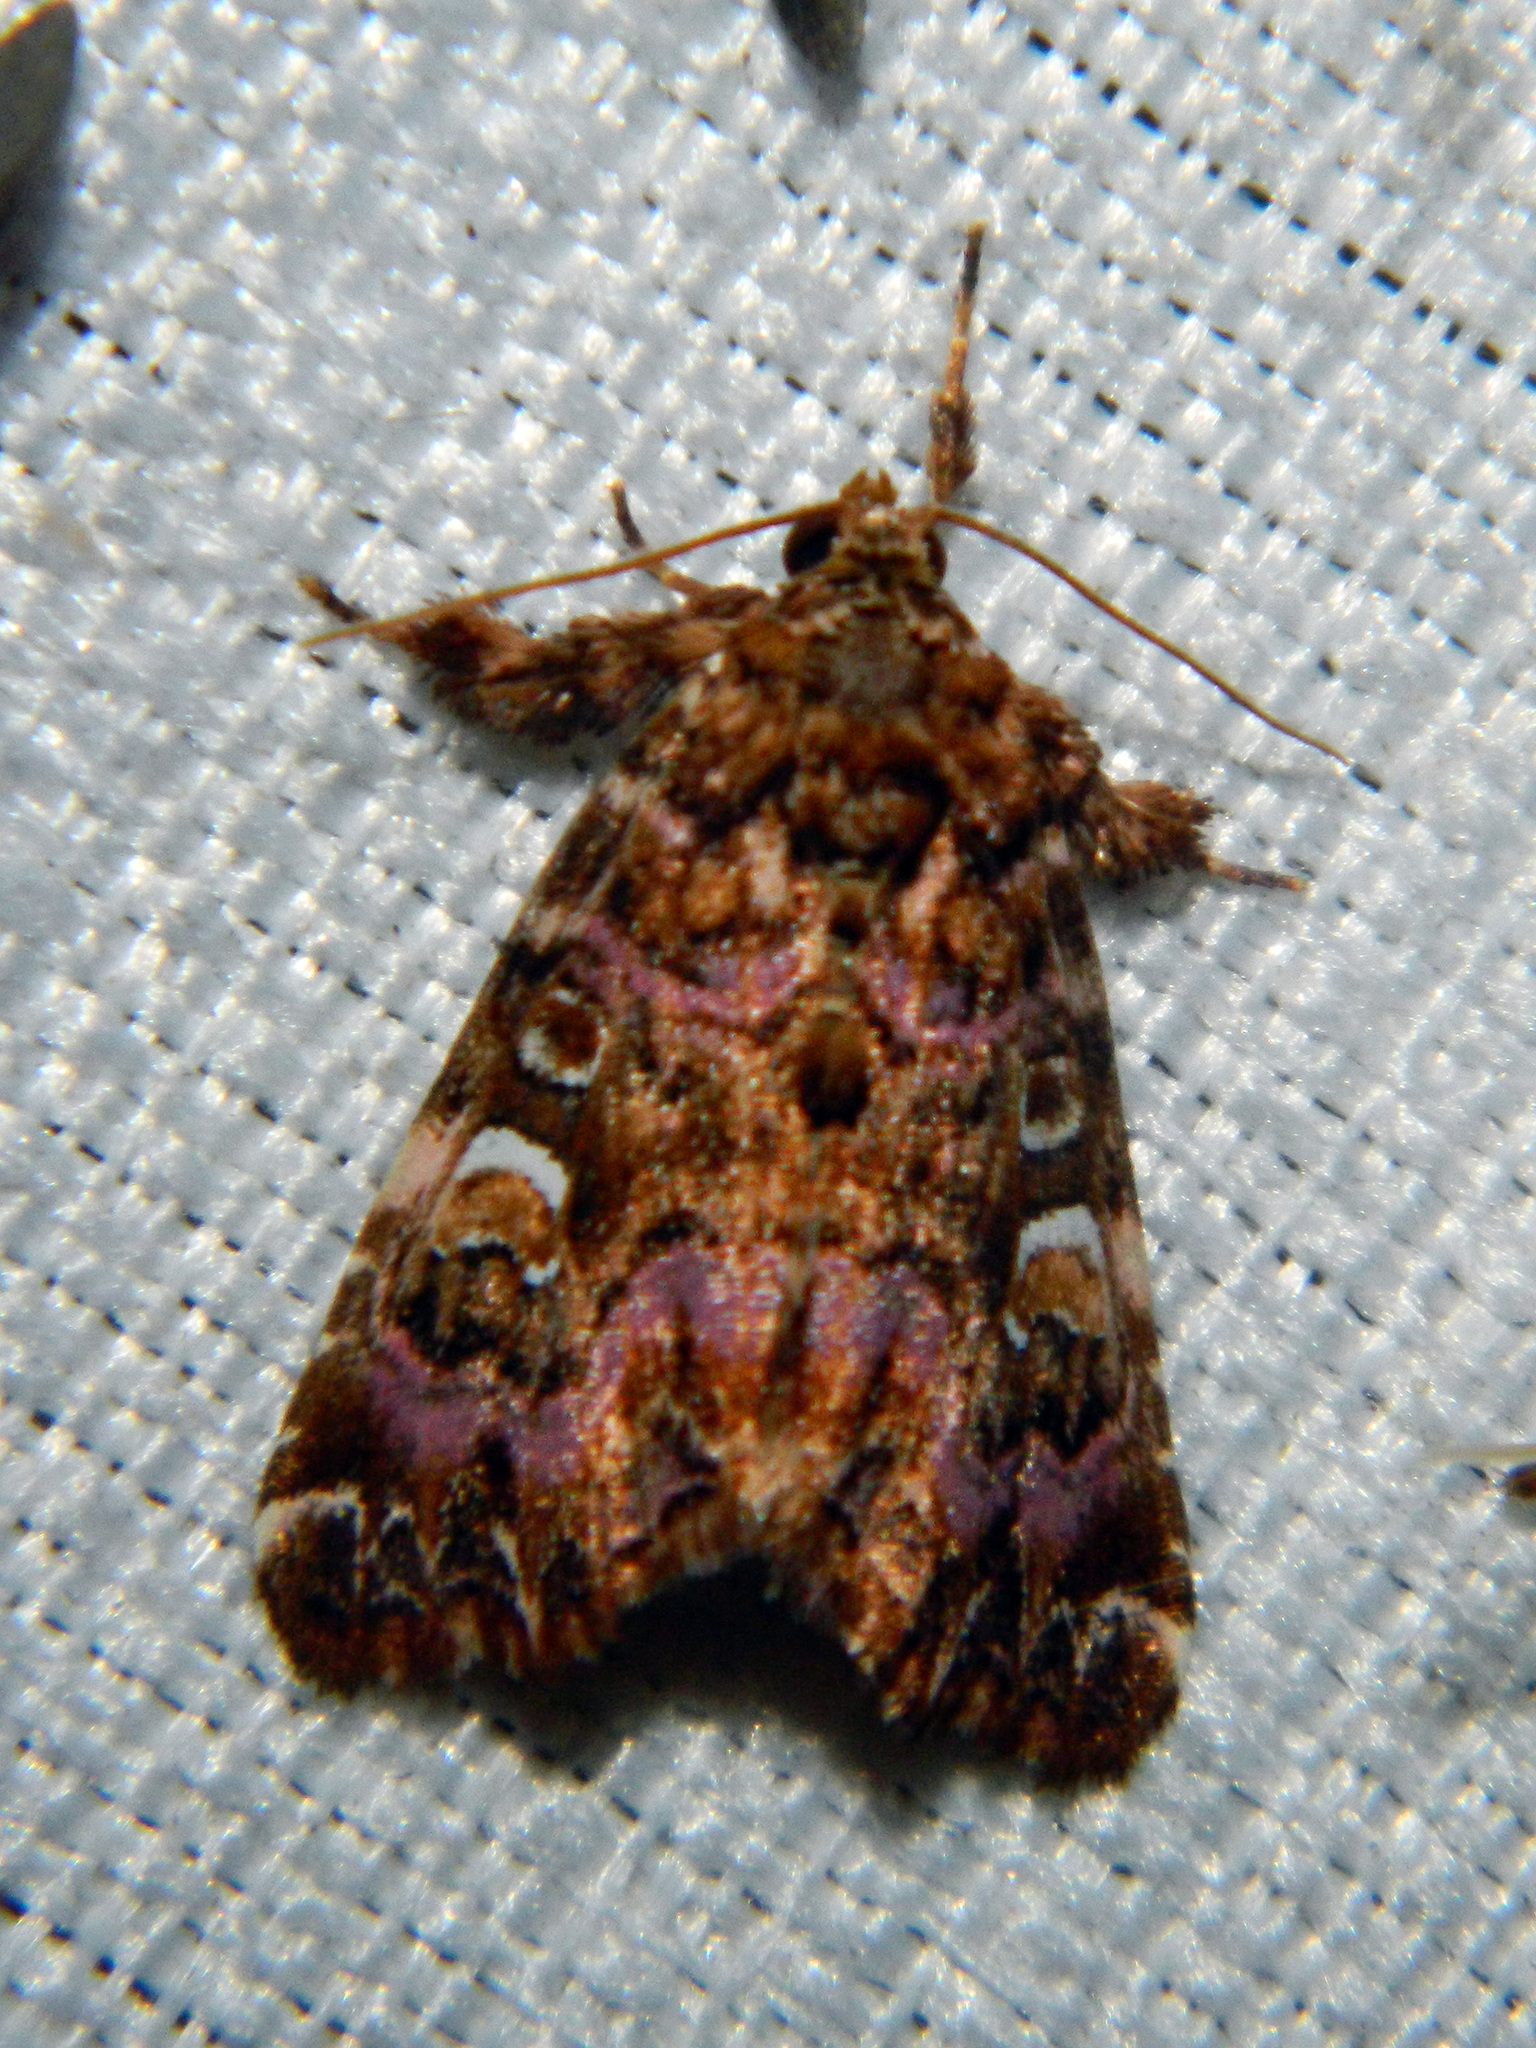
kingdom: Animalia
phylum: Arthropoda
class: Insecta
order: Lepidoptera
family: Noctuidae
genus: Callopistria
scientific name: Callopistria mollissima
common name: Pink-shaded fern moth
